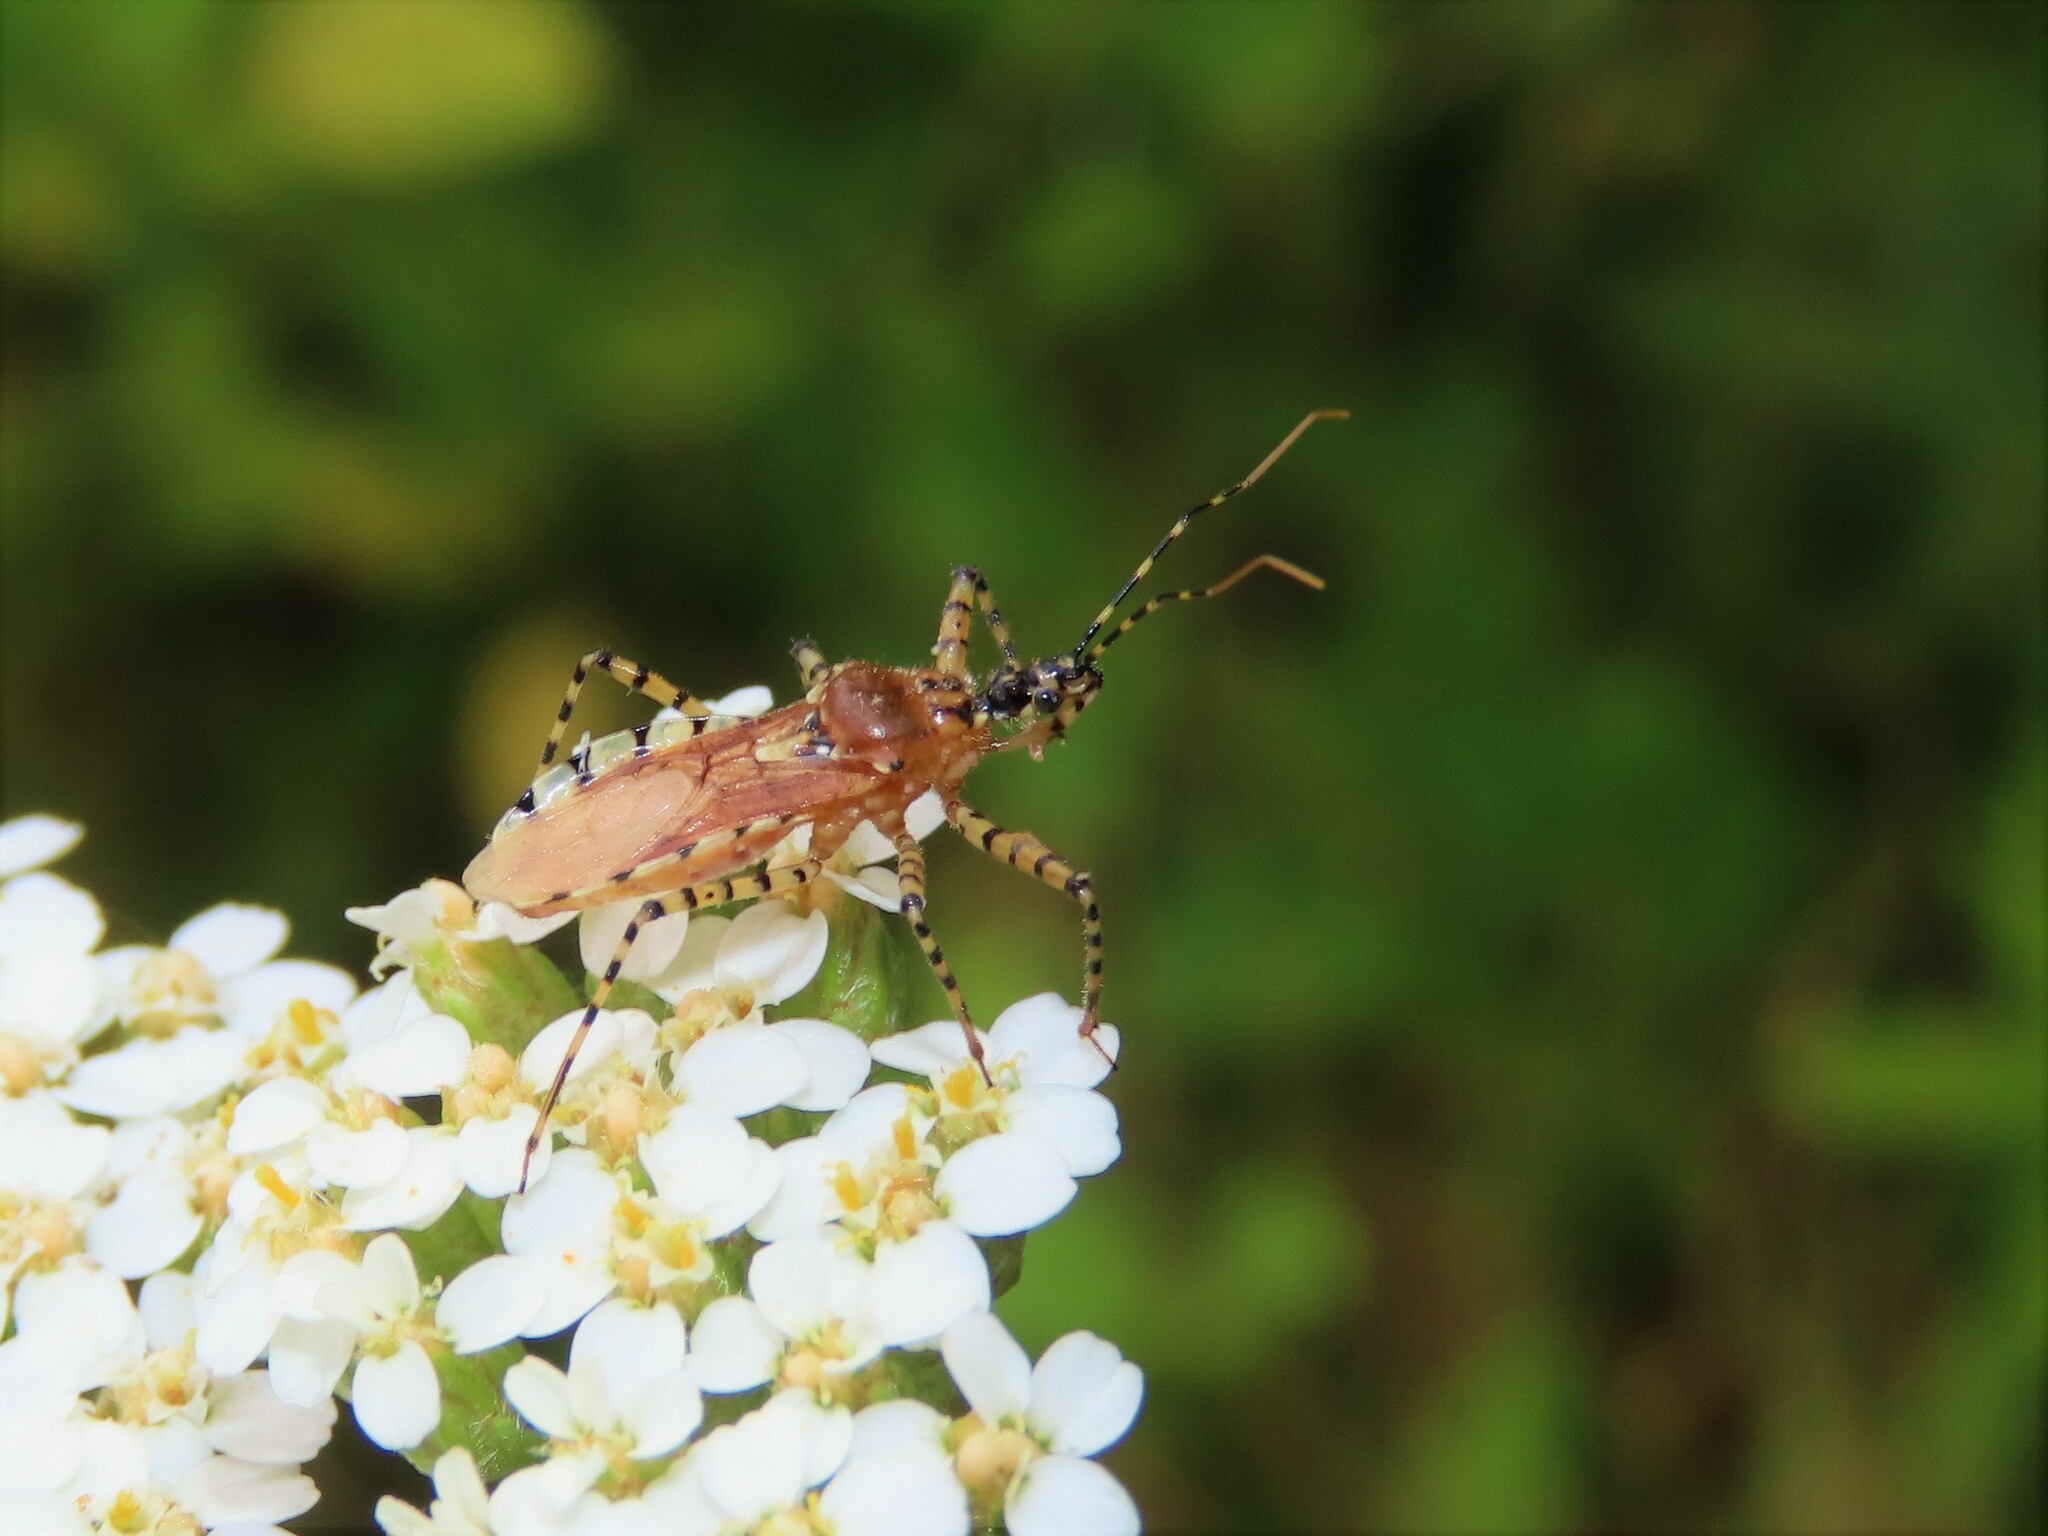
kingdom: Animalia
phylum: Arthropoda
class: Insecta
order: Hemiptera
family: Reduviidae
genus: Pselliopus
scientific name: Pselliopus cinctus
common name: Ringed assassin bug
